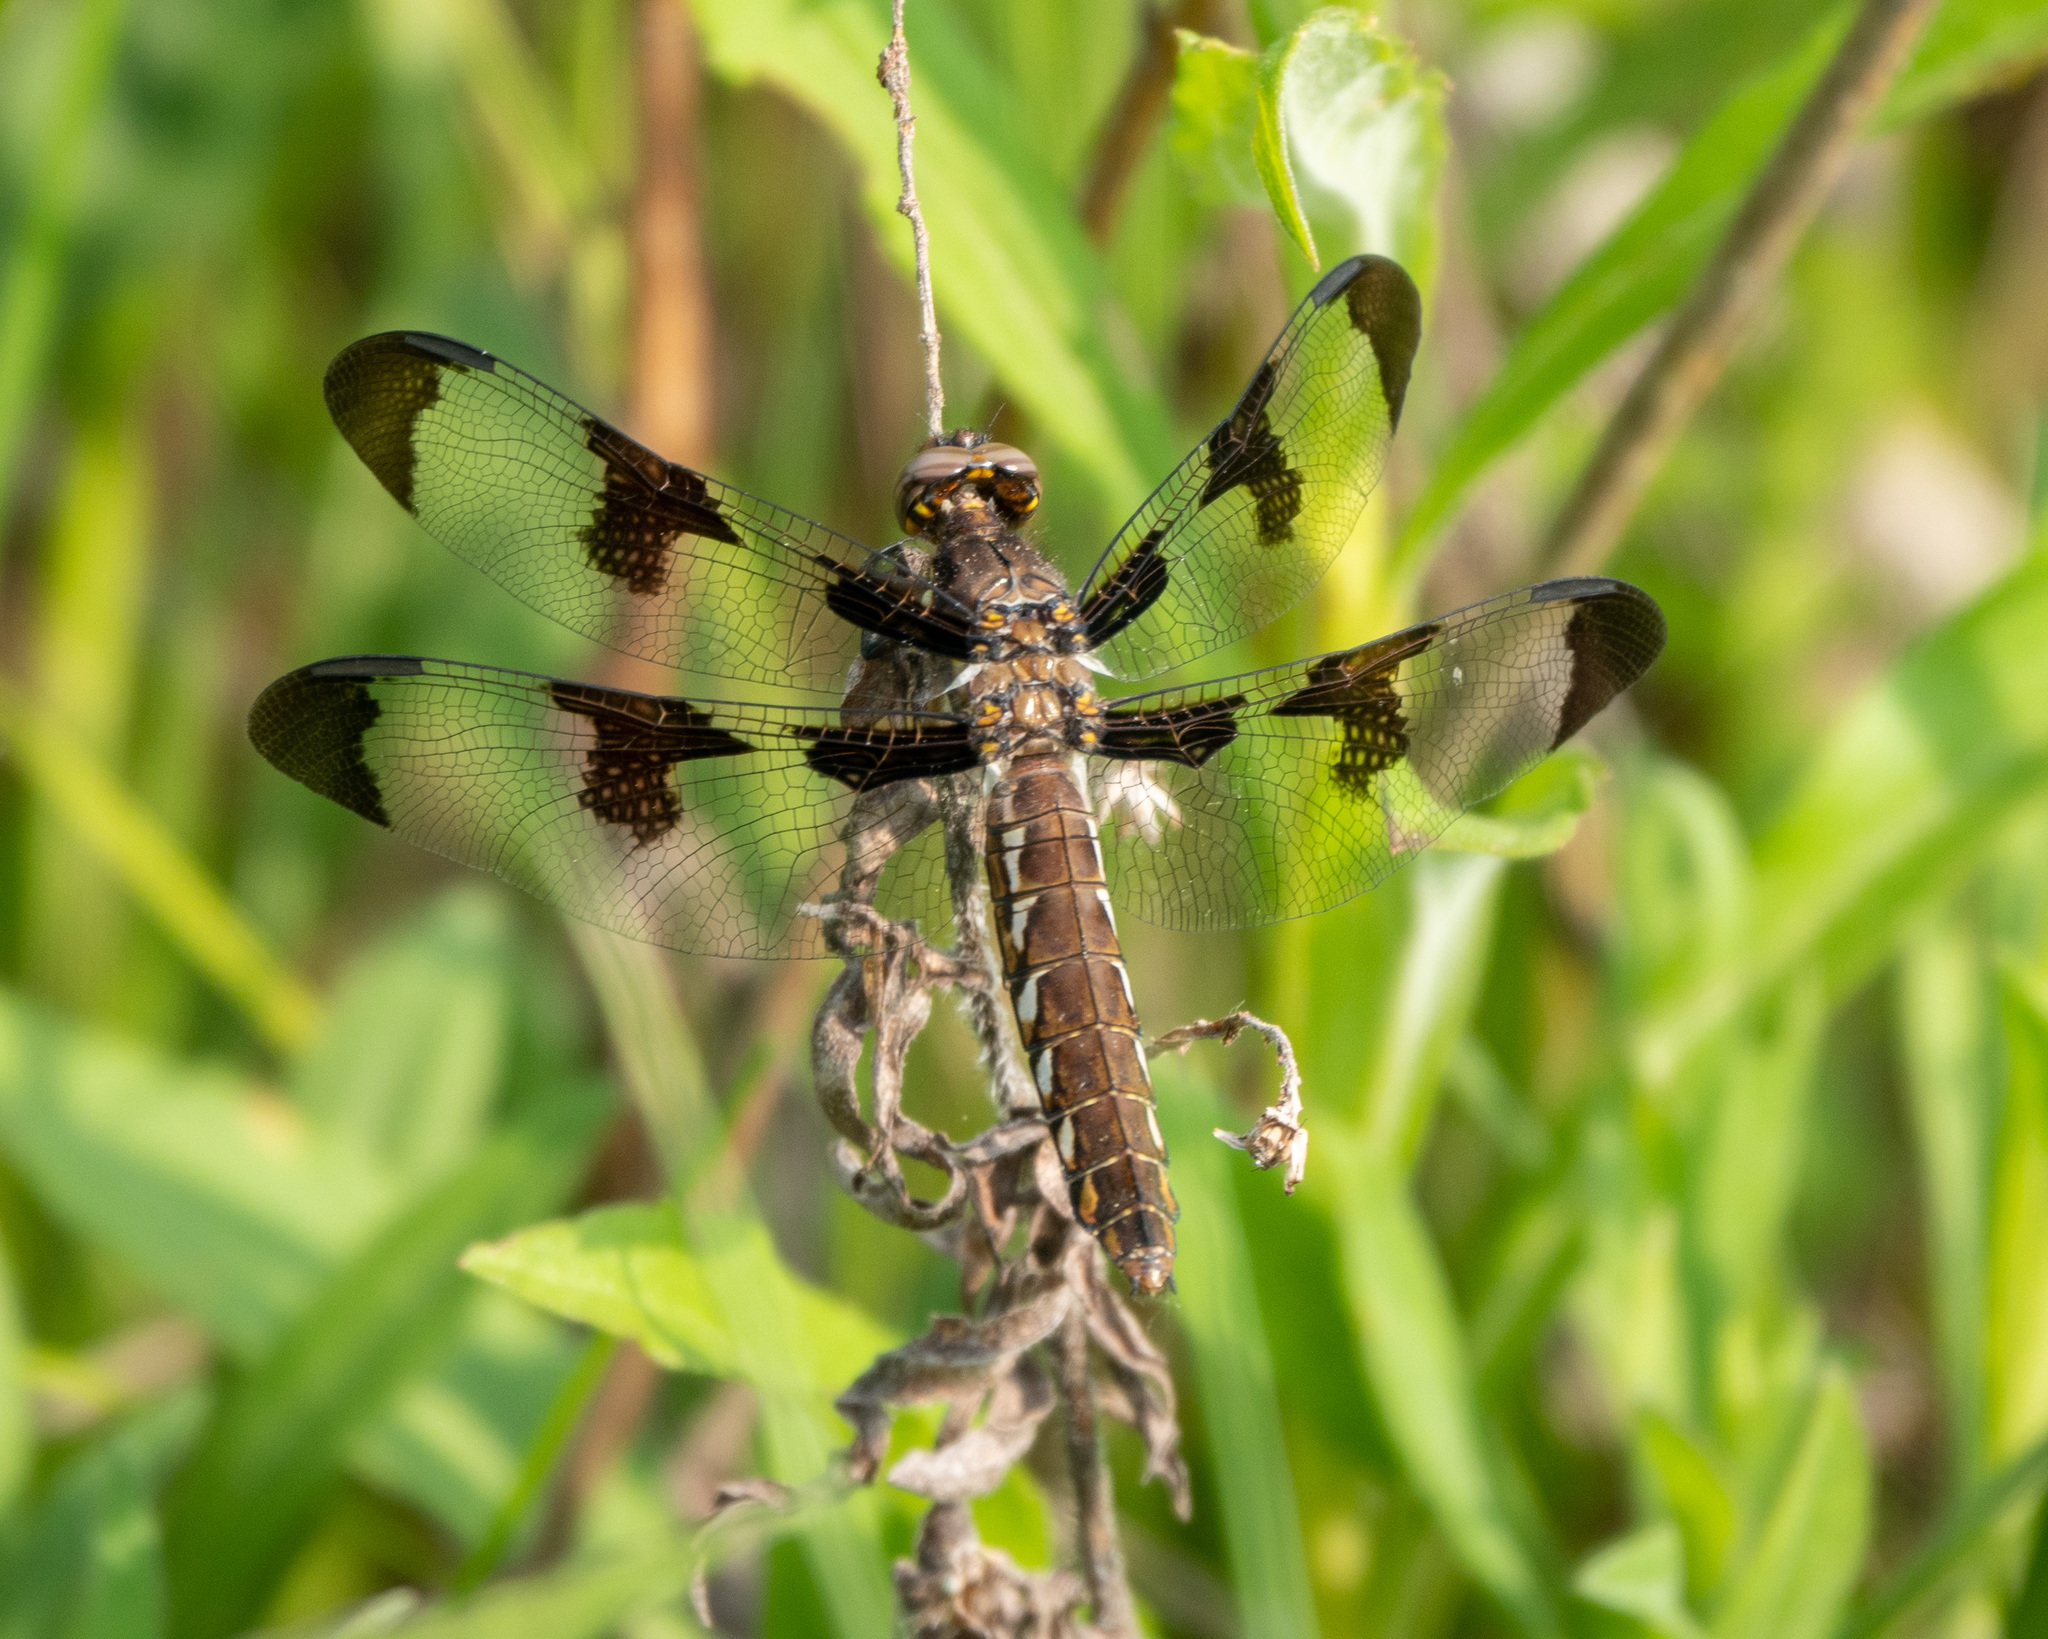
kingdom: Animalia
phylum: Arthropoda
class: Insecta
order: Odonata
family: Libellulidae
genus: Plathemis
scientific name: Plathemis lydia
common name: Common whitetail
